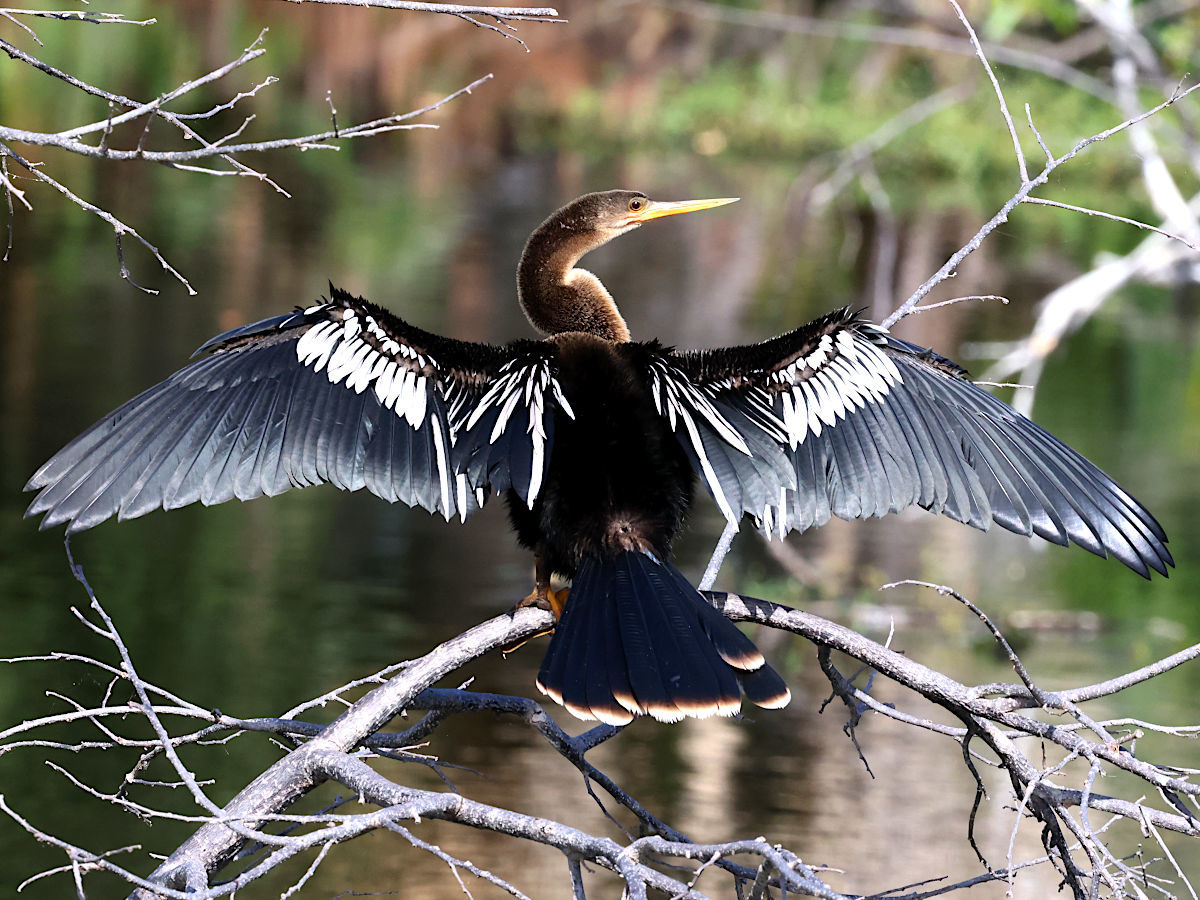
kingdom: Animalia
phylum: Chordata
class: Aves
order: Suliformes
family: Anhingidae
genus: Anhinga
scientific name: Anhinga anhinga
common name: Anhinga
